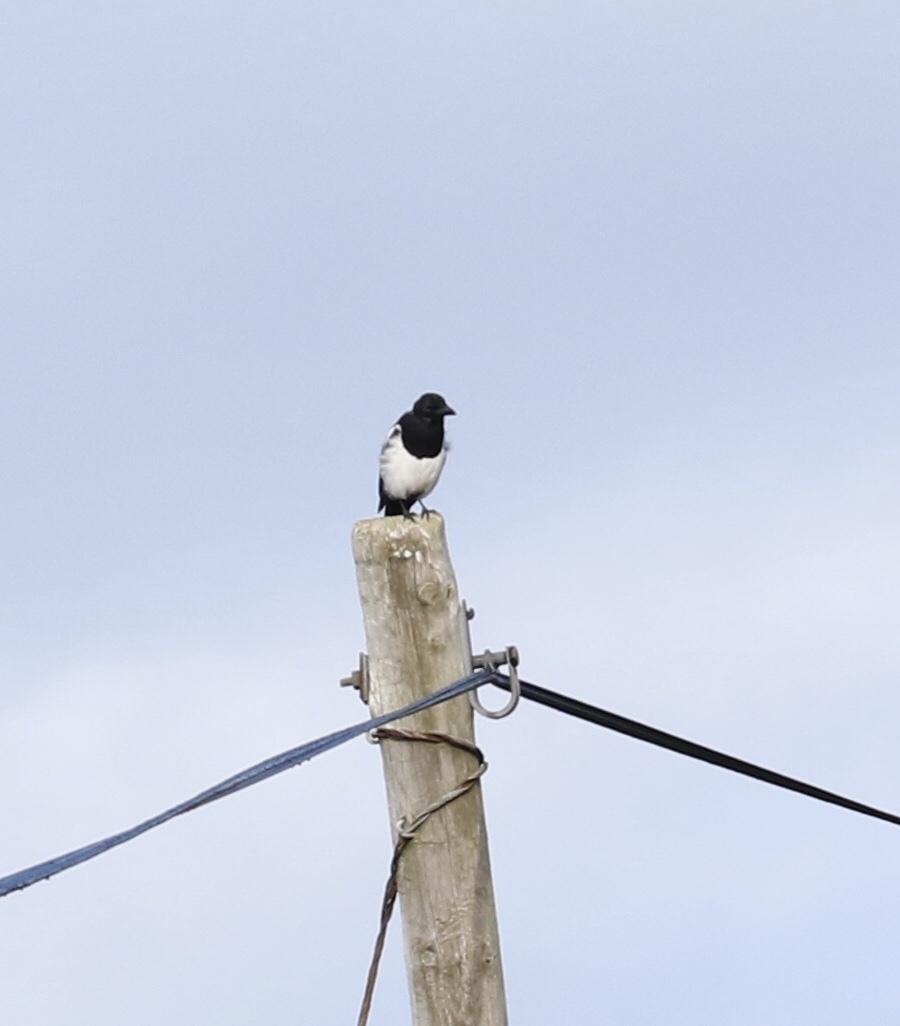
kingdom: Animalia
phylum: Chordata
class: Aves
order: Passeriformes
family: Corvidae
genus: Pica
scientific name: Pica pica
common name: Eurasian magpie
